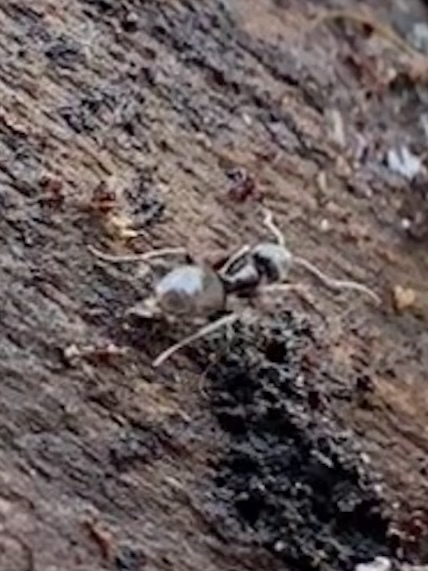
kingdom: Animalia
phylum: Arthropoda
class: Insecta
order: Hymenoptera
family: Formicidae
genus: Tapinoma
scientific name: Tapinoma sessile
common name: Odorous house ant
